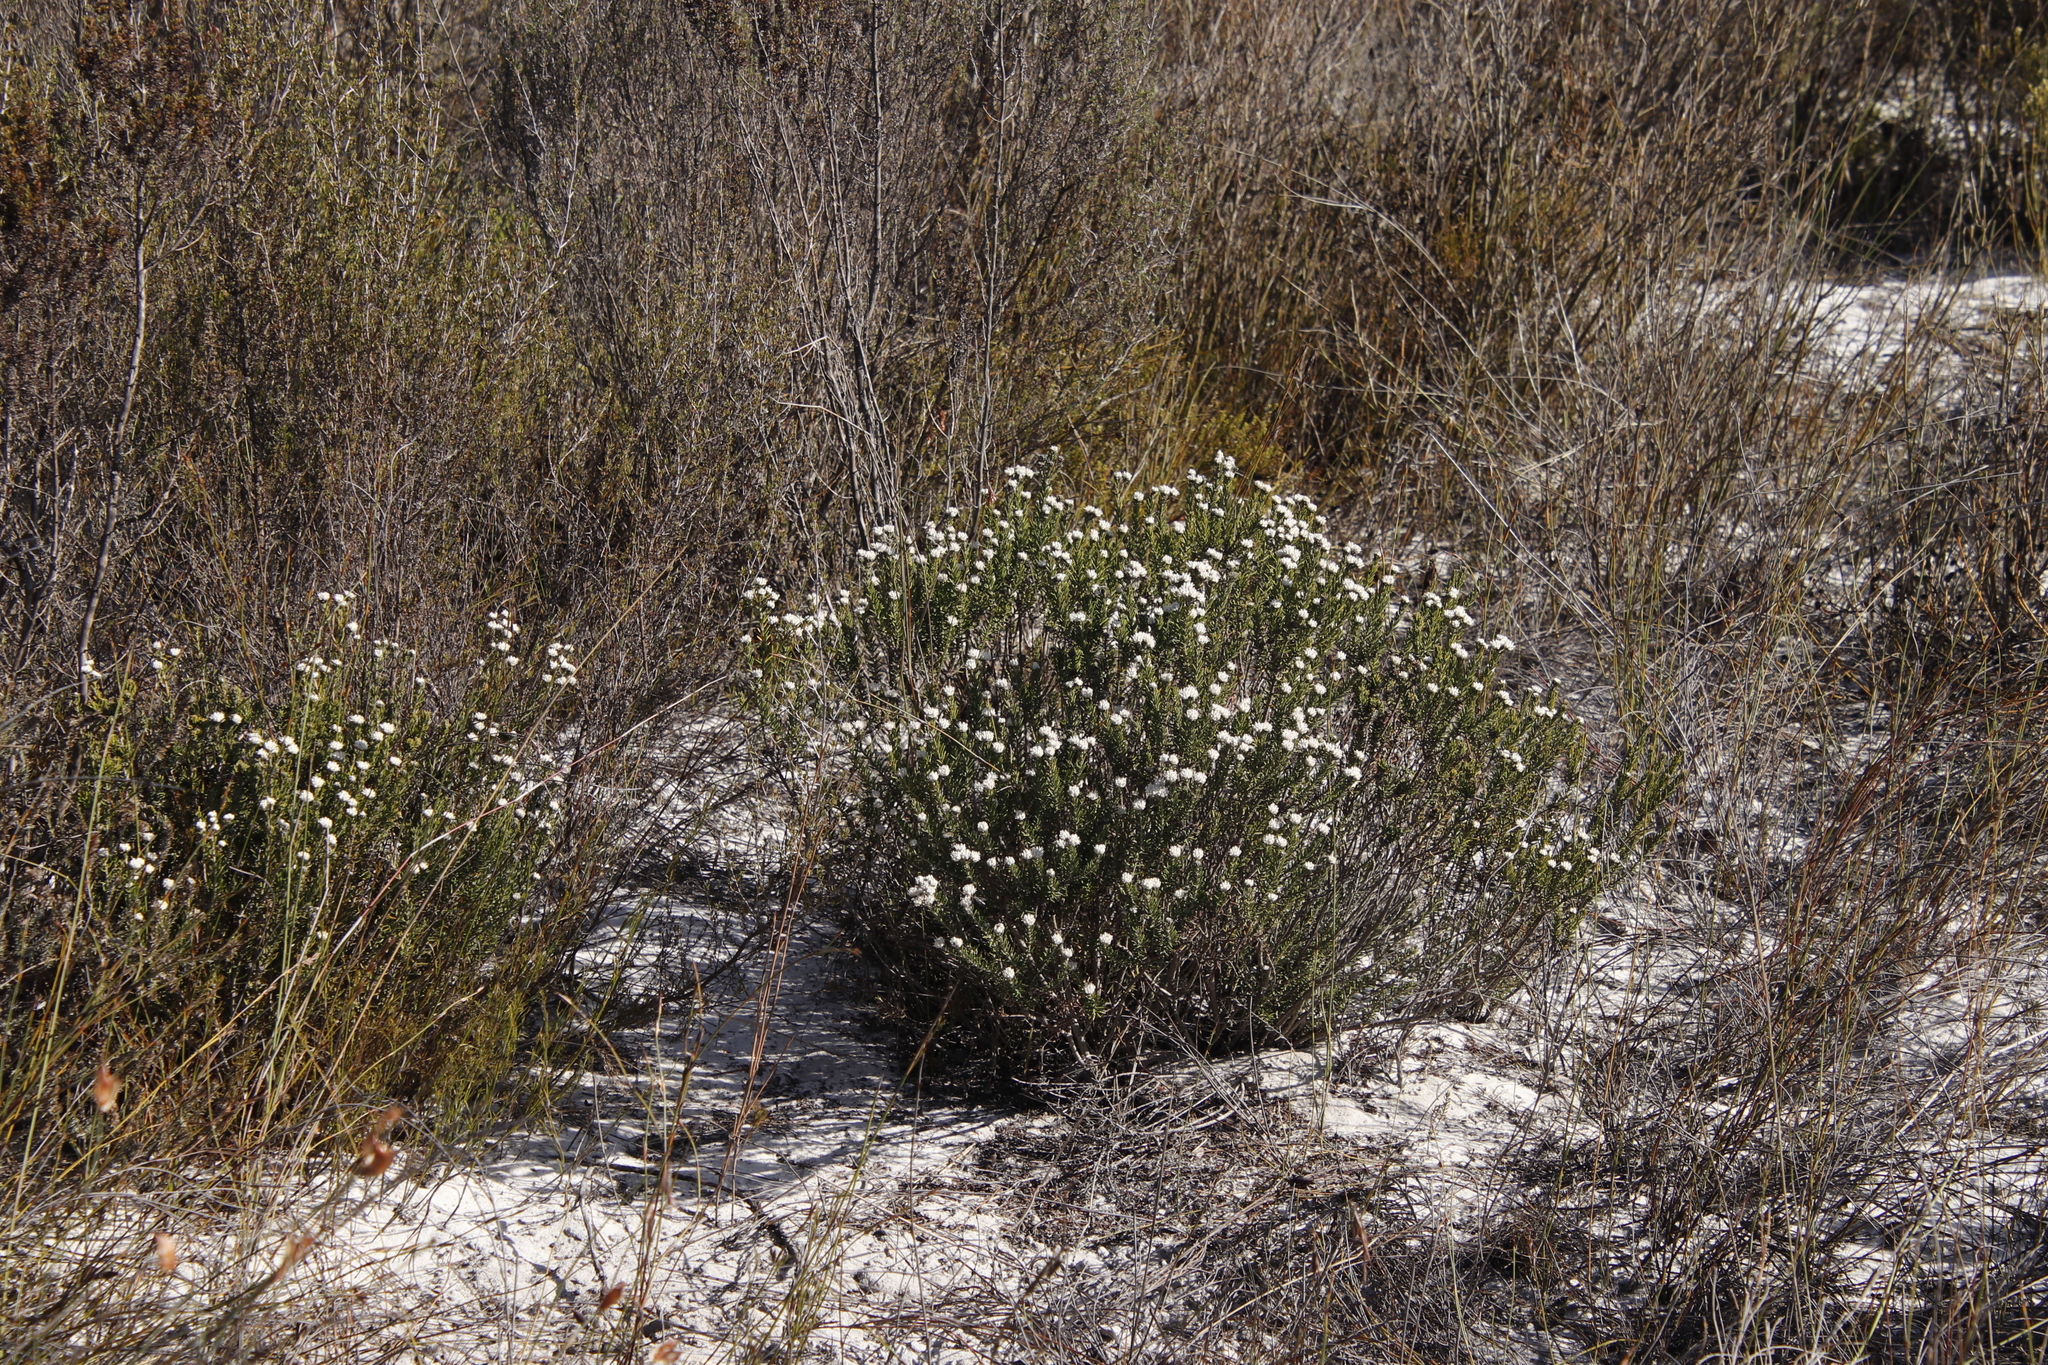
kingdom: Plantae
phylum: Tracheophyta
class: Magnoliopsida
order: Rosales
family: Rhamnaceae
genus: Trichocephalus
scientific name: Trichocephalus stipularis
